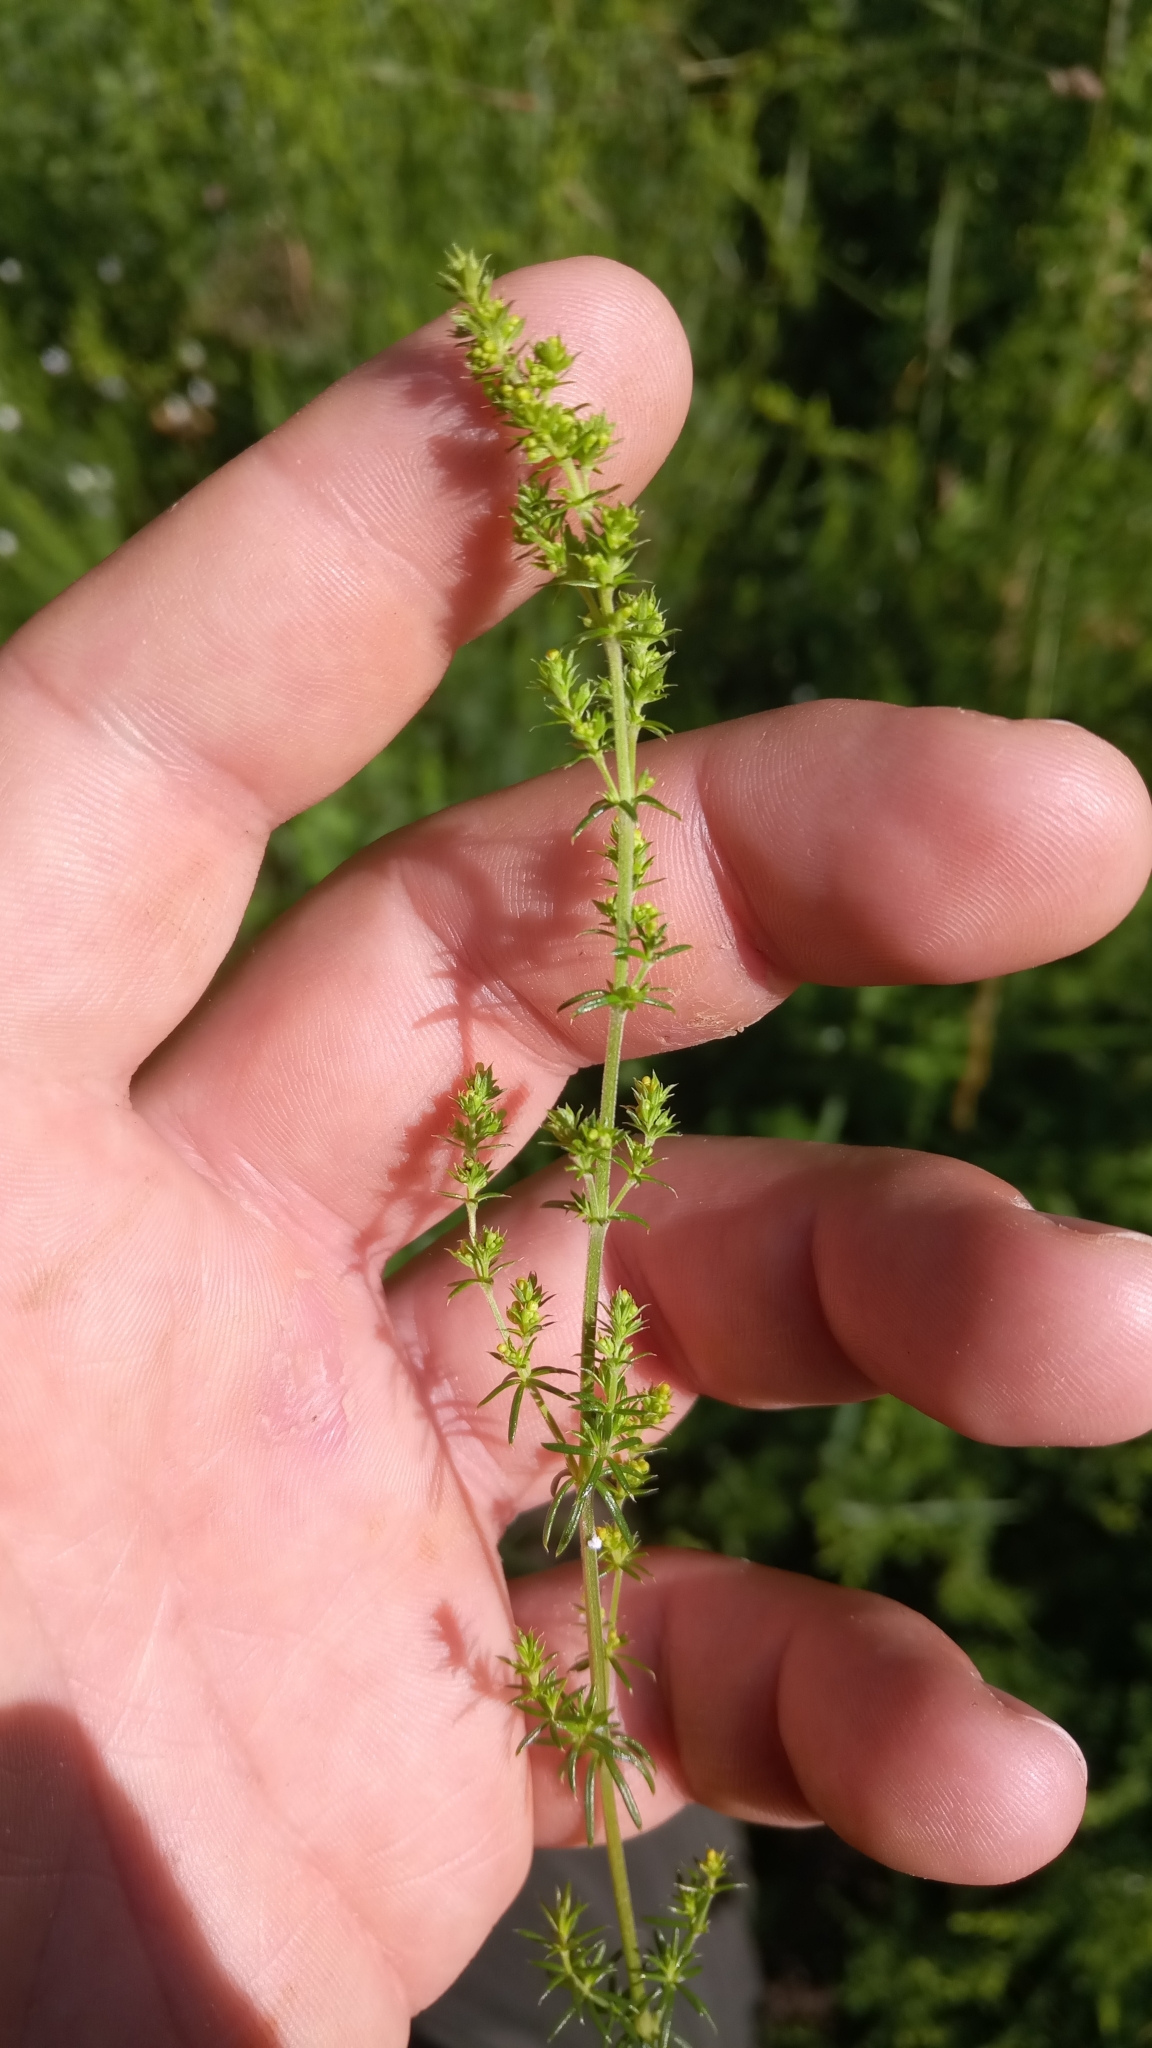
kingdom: Plantae
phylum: Tracheophyta
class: Magnoliopsida
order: Gentianales
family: Rubiaceae
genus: Galium
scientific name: Galium verum
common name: Lady's bedstraw
